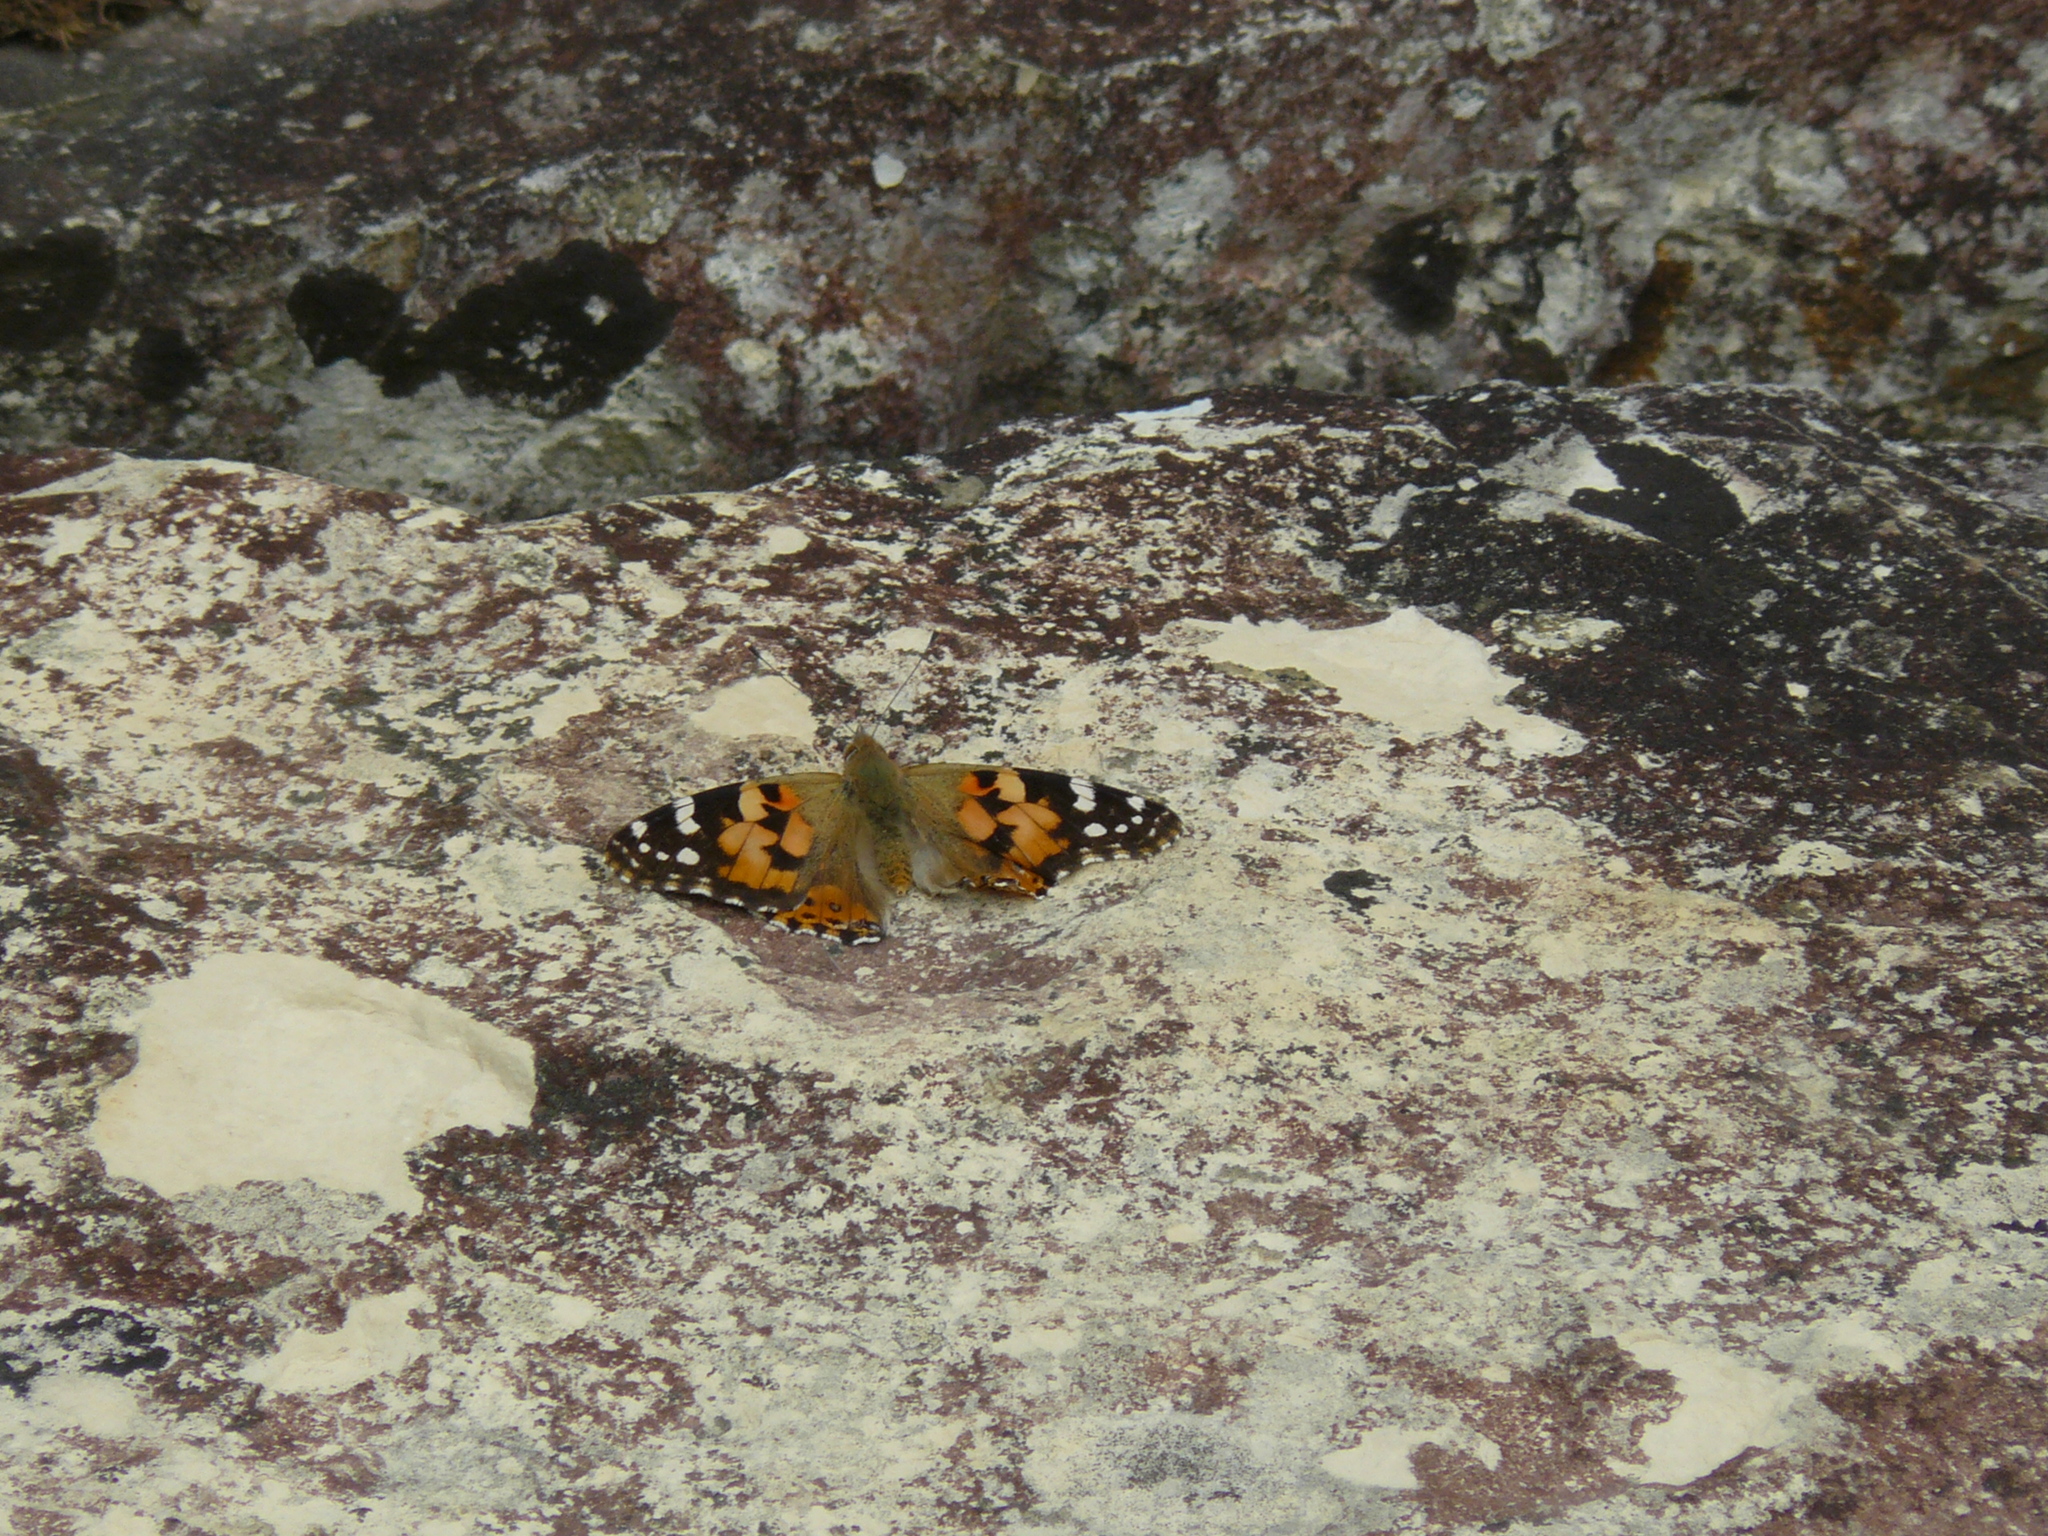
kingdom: Animalia
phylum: Arthropoda
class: Insecta
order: Lepidoptera
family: Nymphalidae
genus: Vanessa
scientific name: Vanessa cardui
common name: Painted lady
